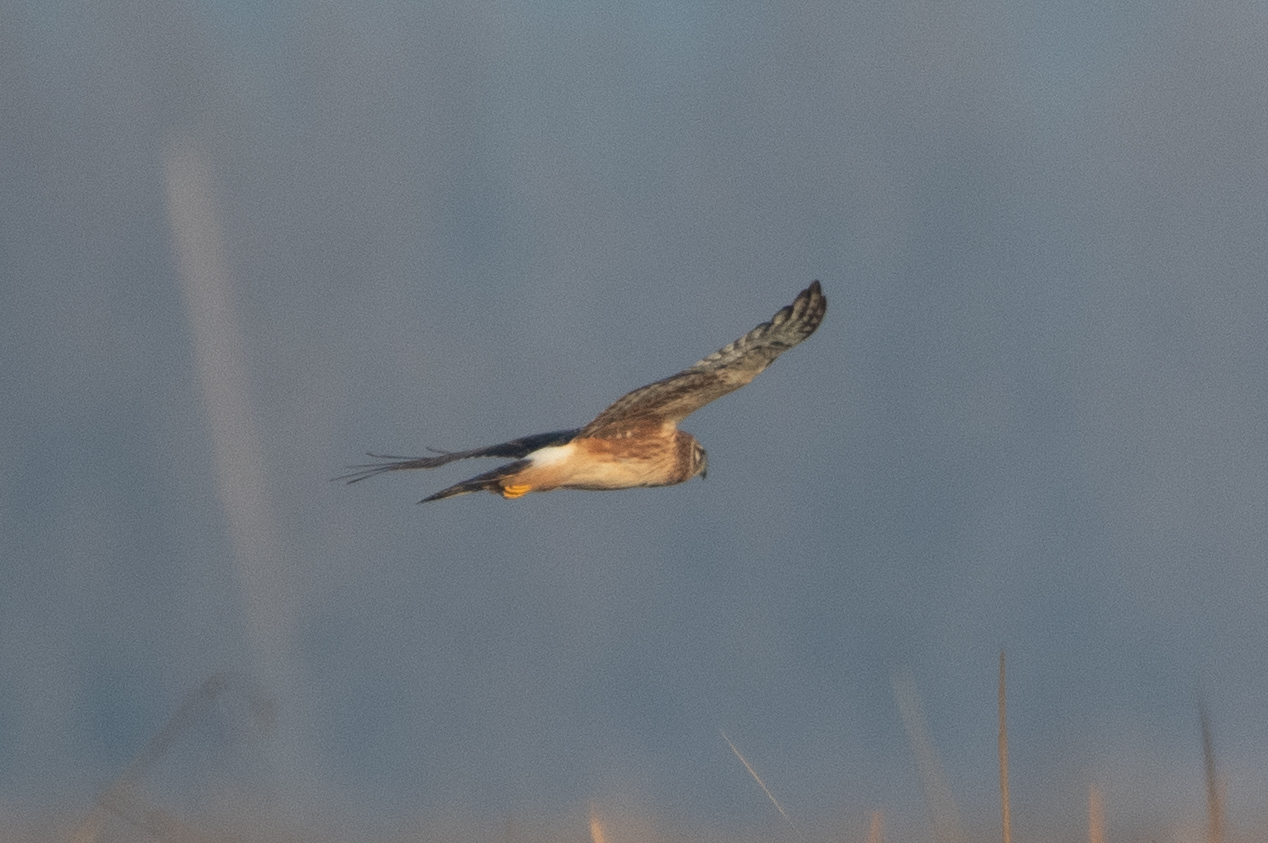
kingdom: Animalia
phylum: Chordata
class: Aves
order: Accipitriformes
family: Accipitridae
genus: Circus
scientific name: Circus cyaneus
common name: Hen harrier
